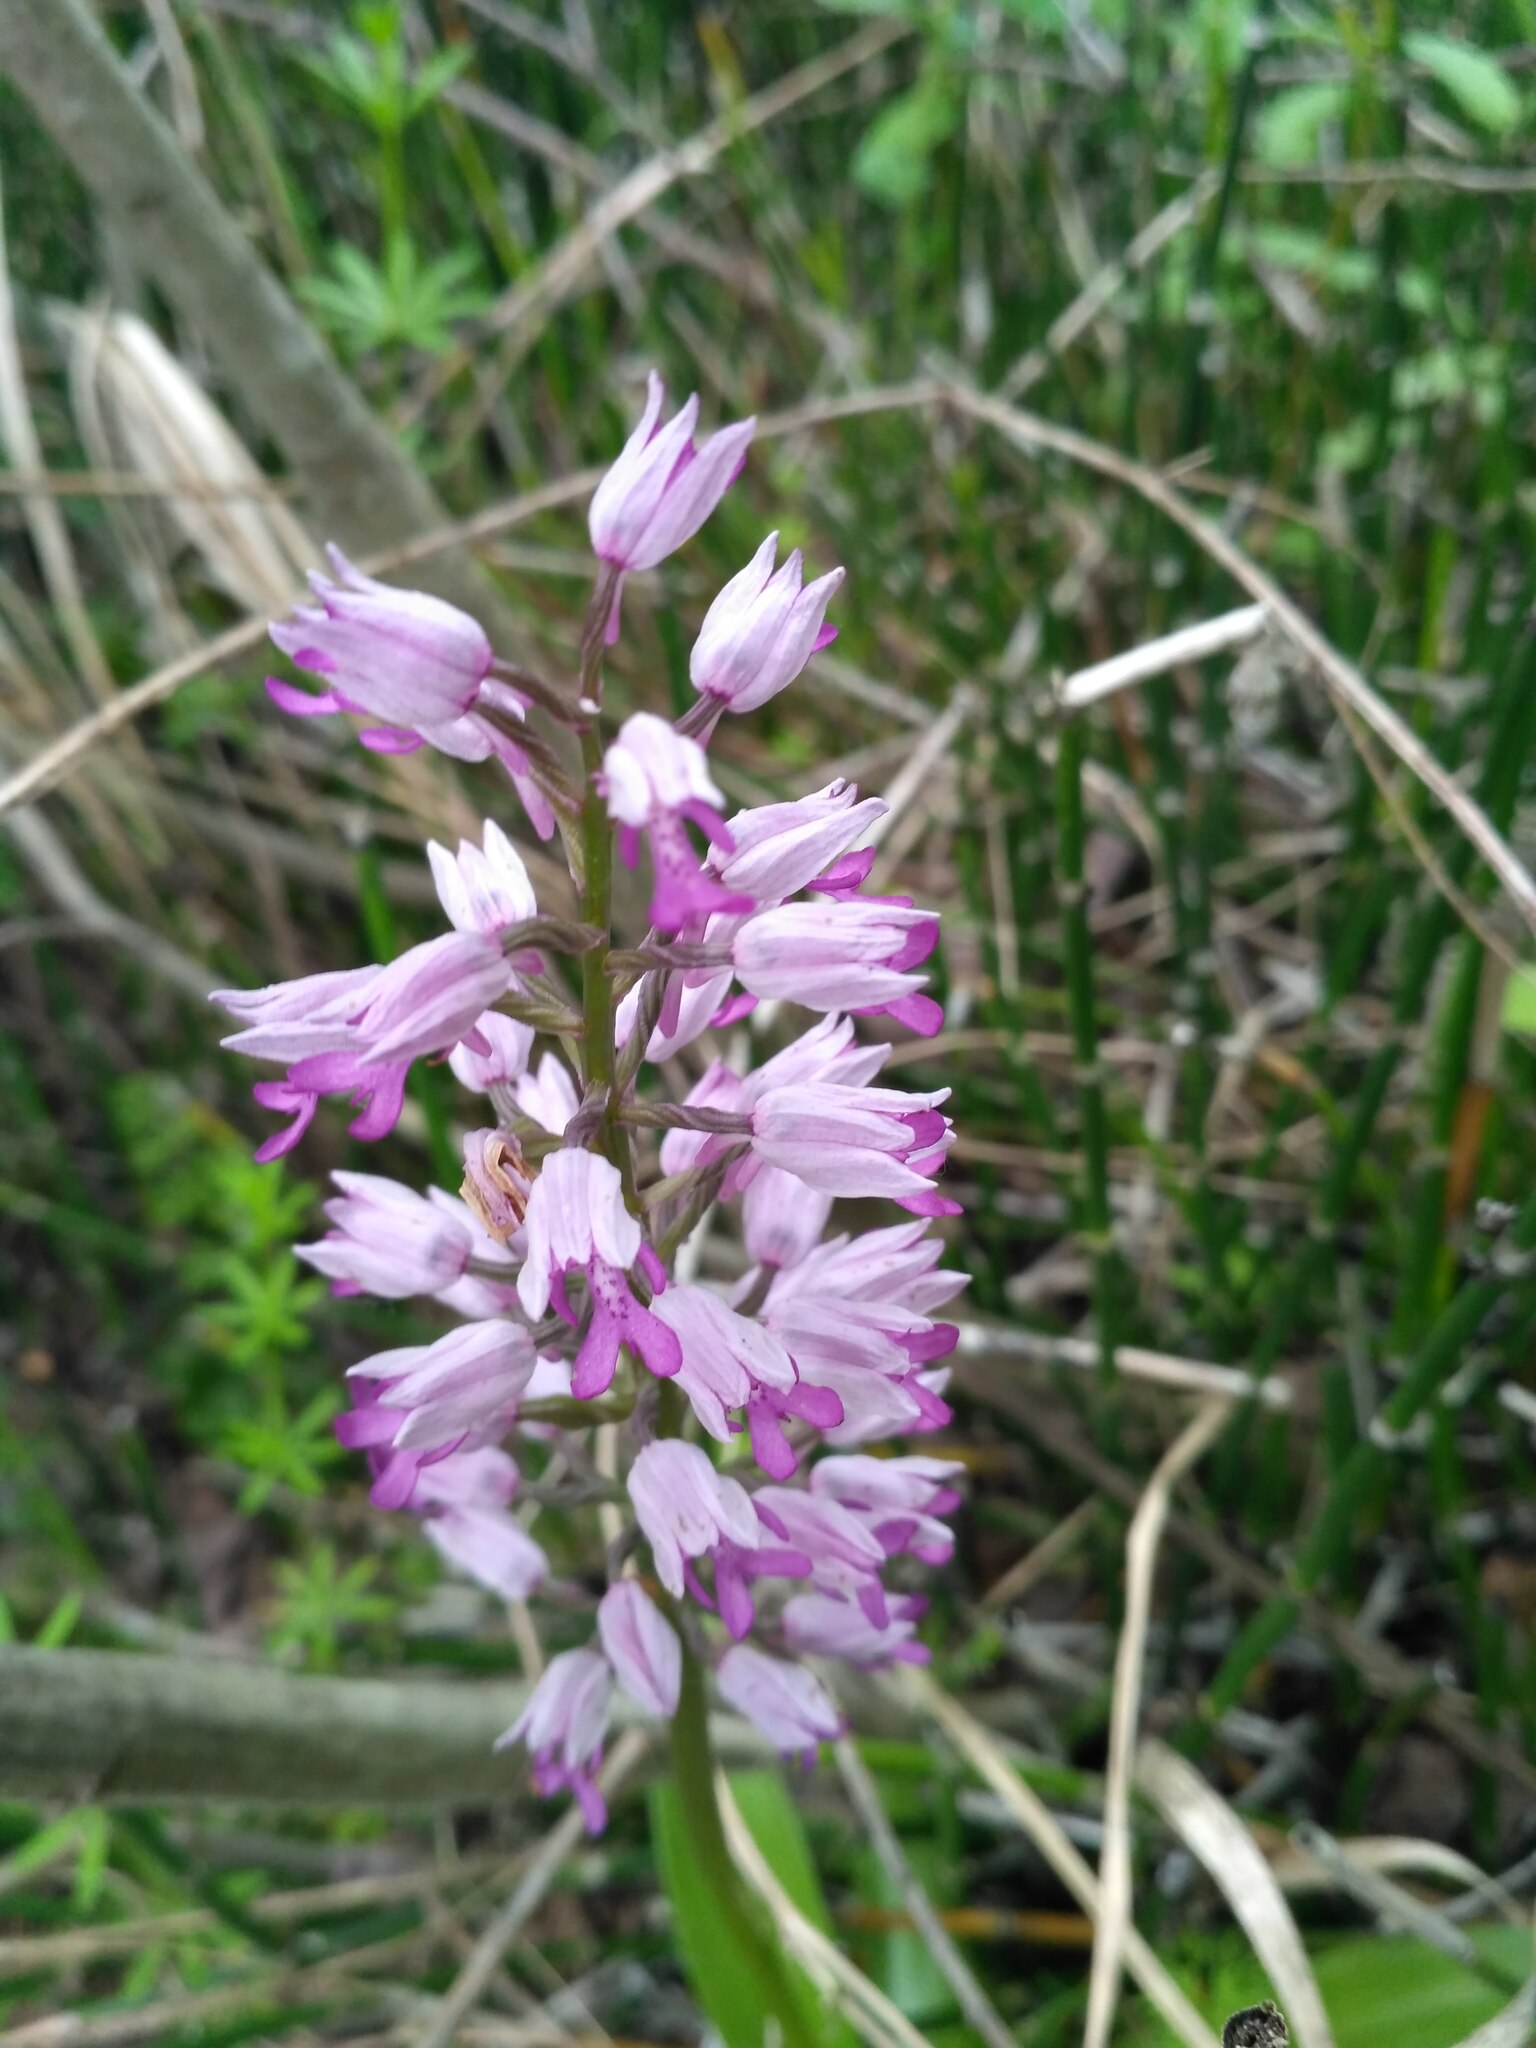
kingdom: Plantae
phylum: Tracheophyta
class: Liliopsida
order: Asparagales
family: Orchidaceae
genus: Orchis
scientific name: Orchis militaris
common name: Military orchid
